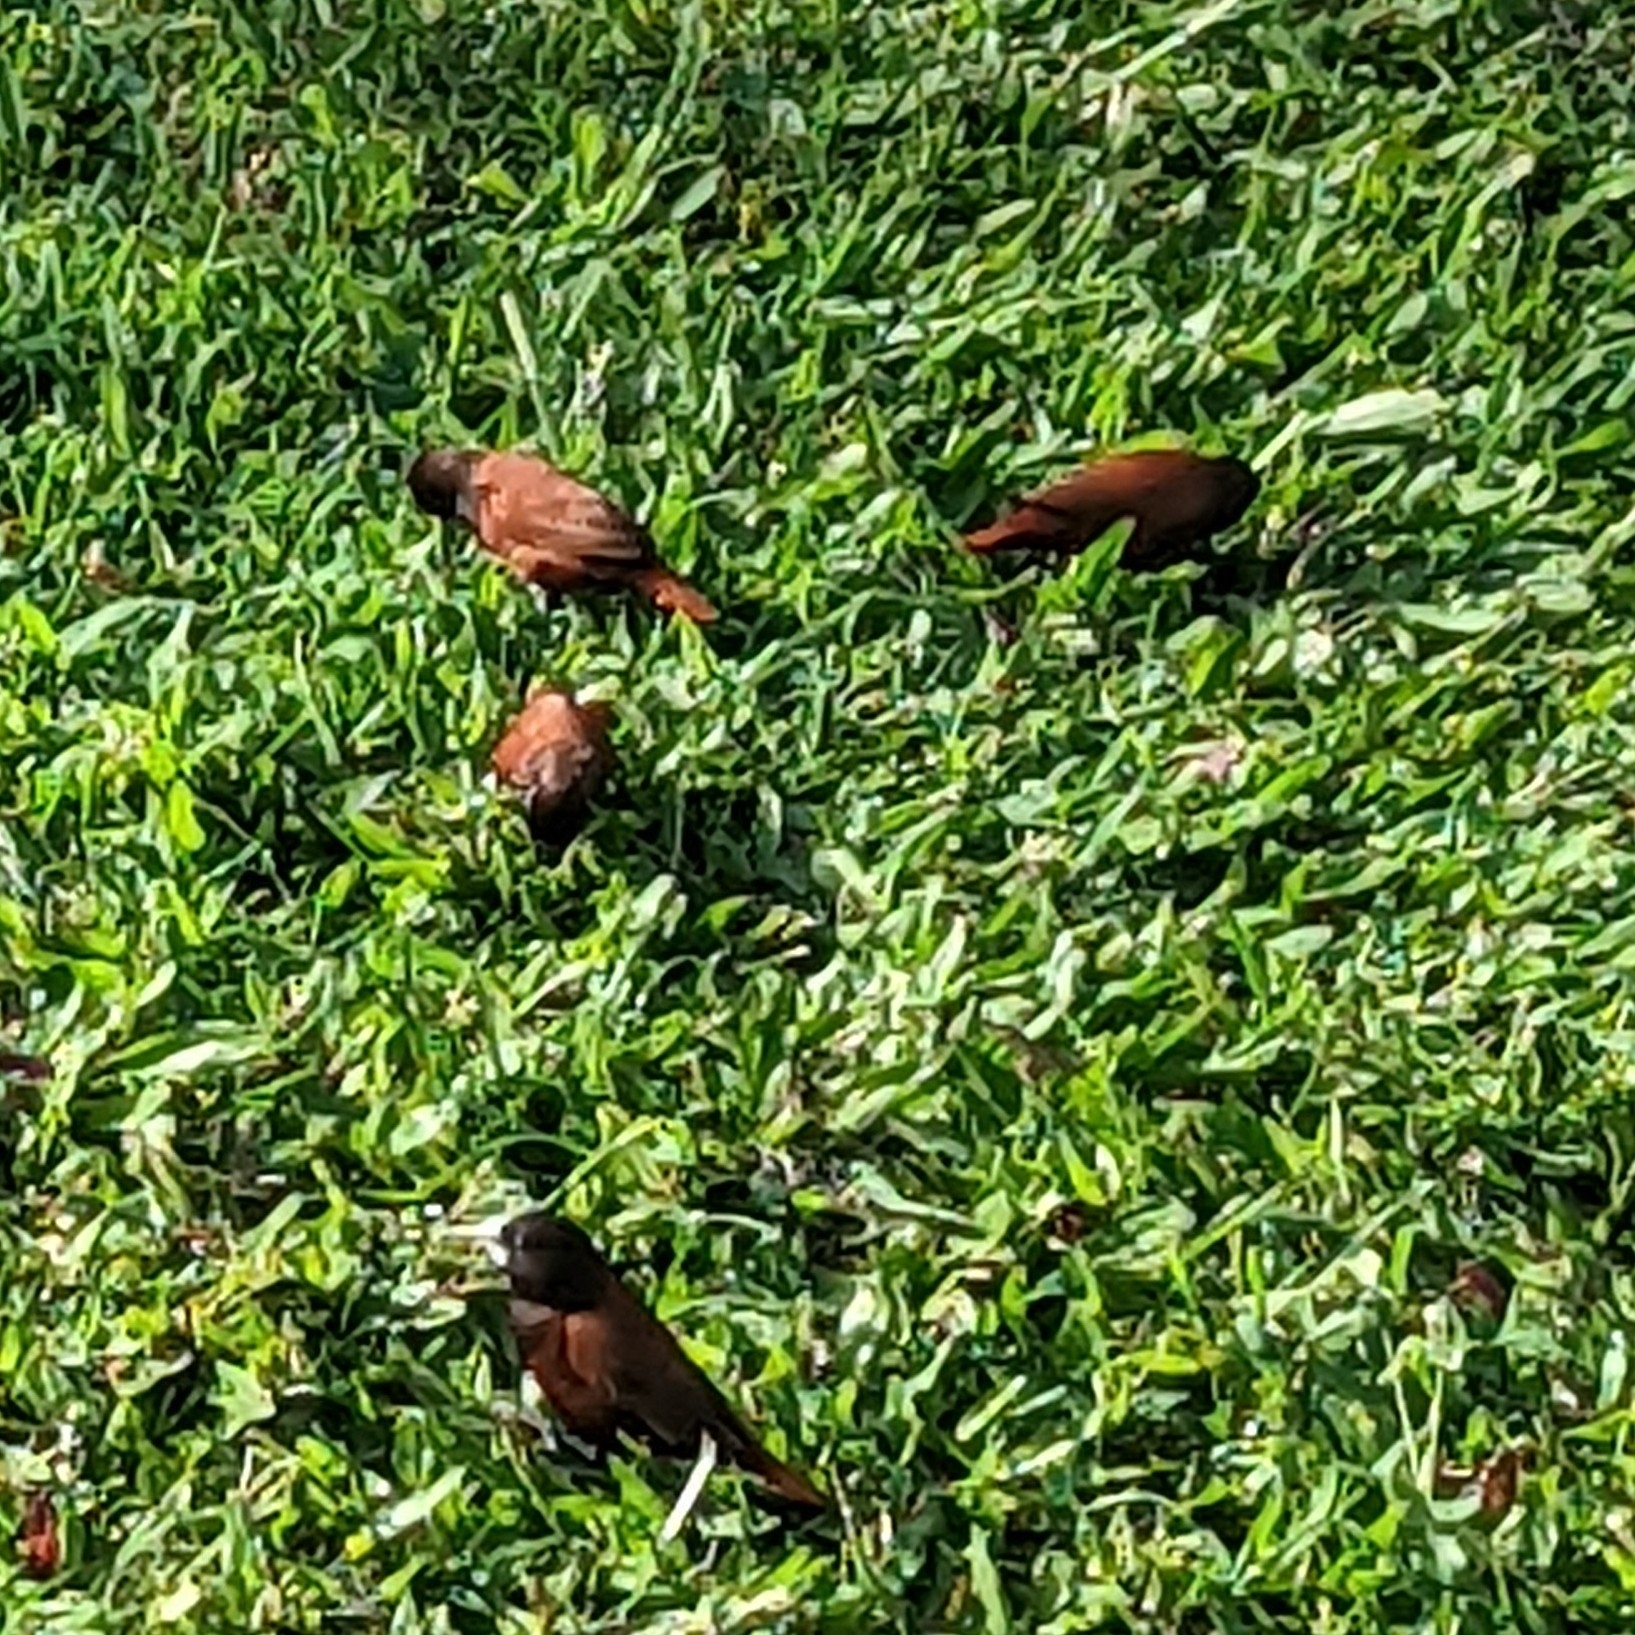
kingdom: Animalia
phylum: Chordata
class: Aves
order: Passeriformes
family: Estrildidae
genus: Lonchura
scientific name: Lonchura atricapilla
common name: Chestnut munia
